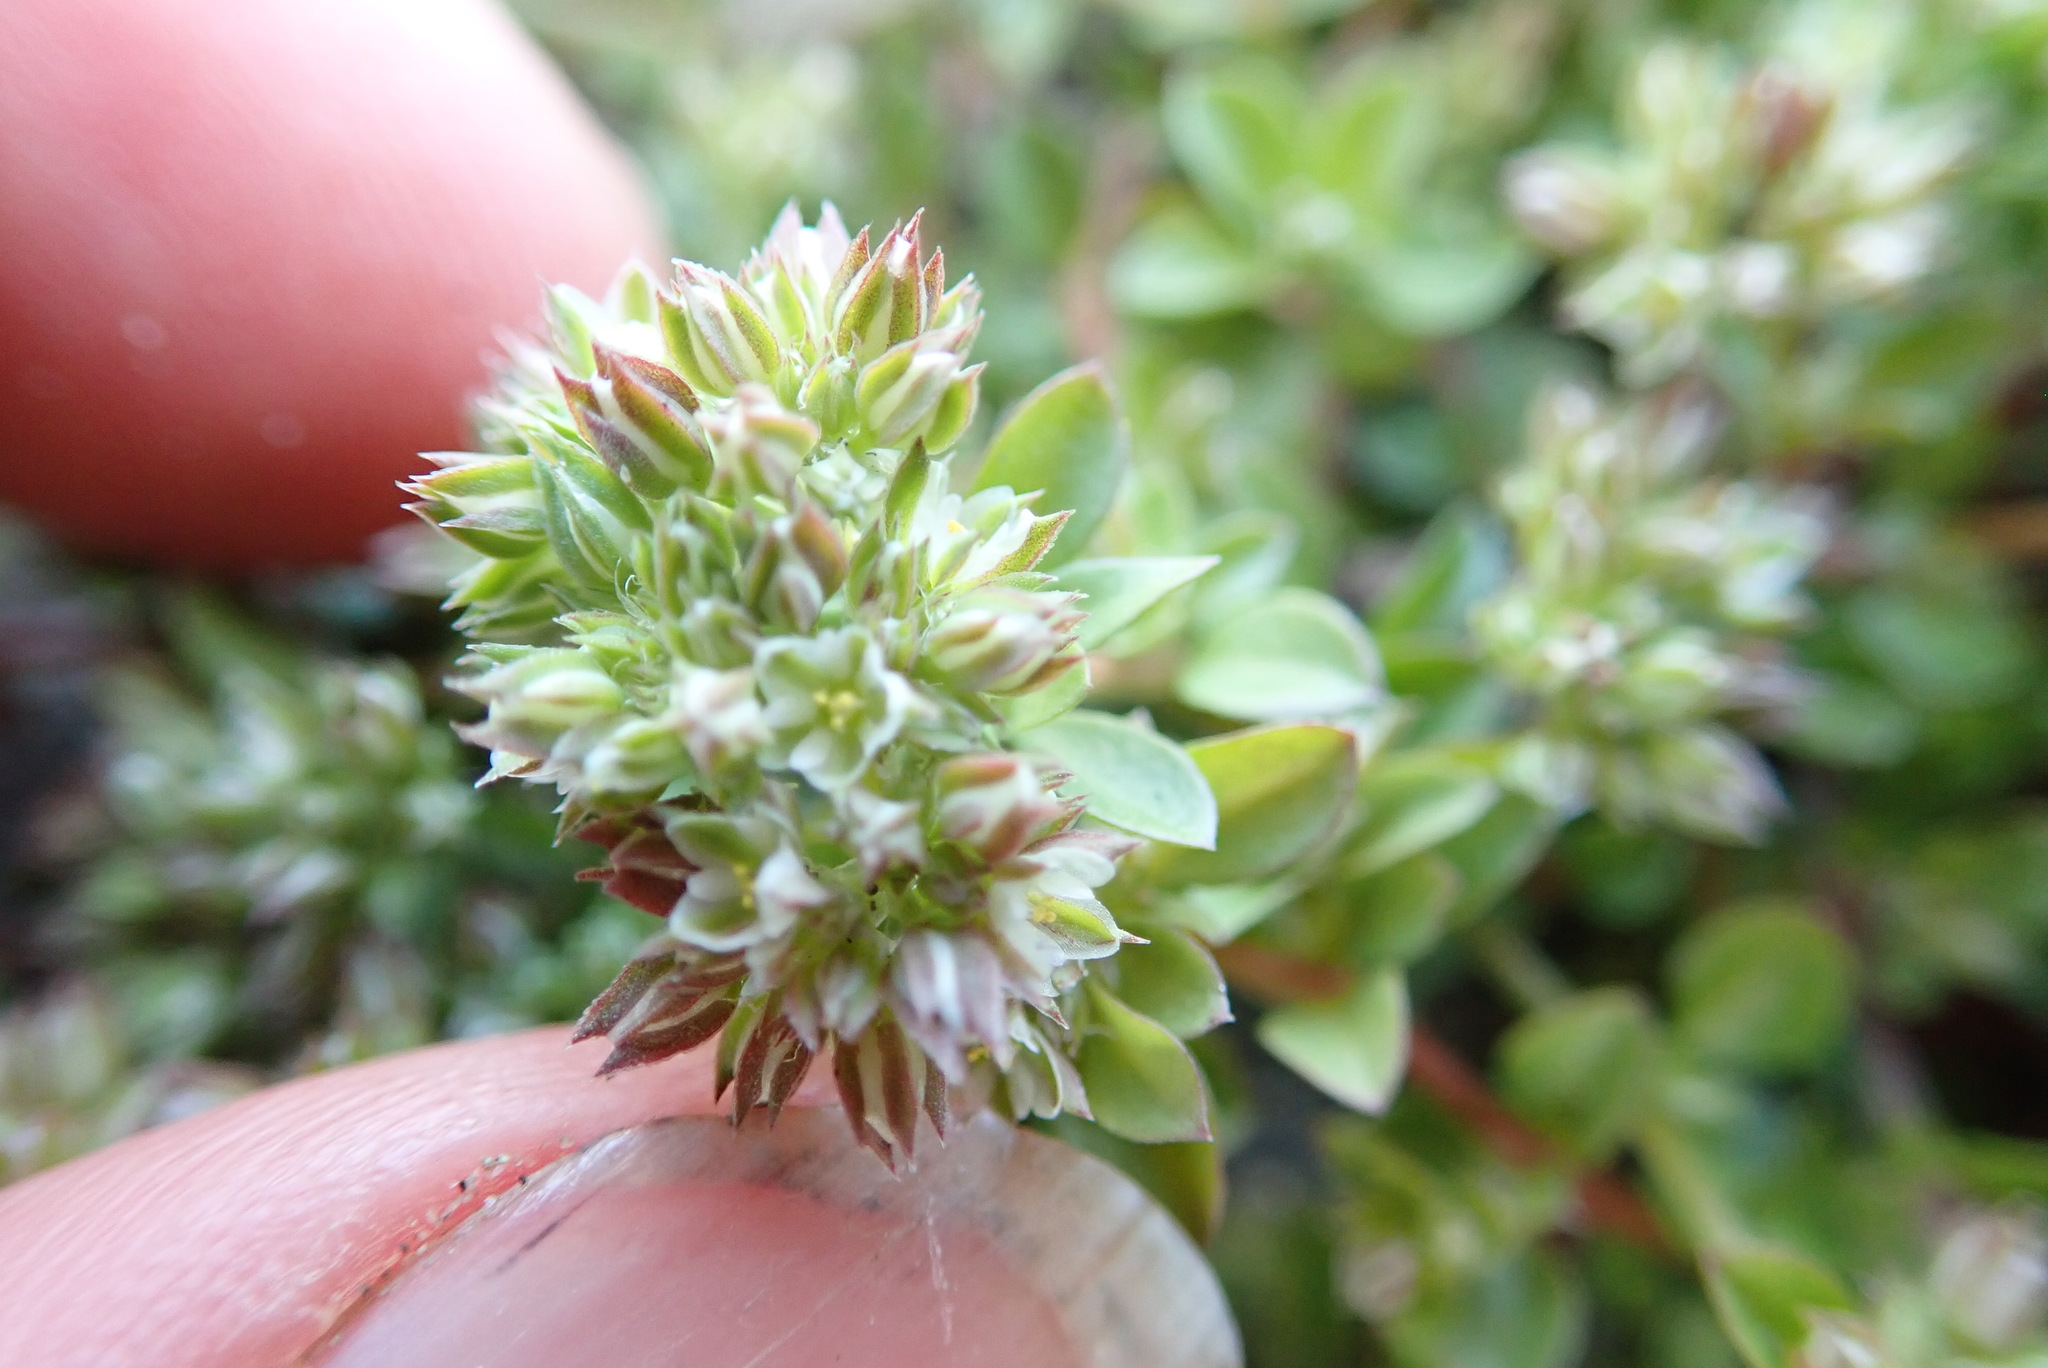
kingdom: Plantae
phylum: Tracheophyta
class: Magnoliopsida
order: Caryophyllales
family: Caryophyllaceae
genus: Polycarpon
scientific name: Polycarpon tetraphyllum
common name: Four-leaved all-seed
